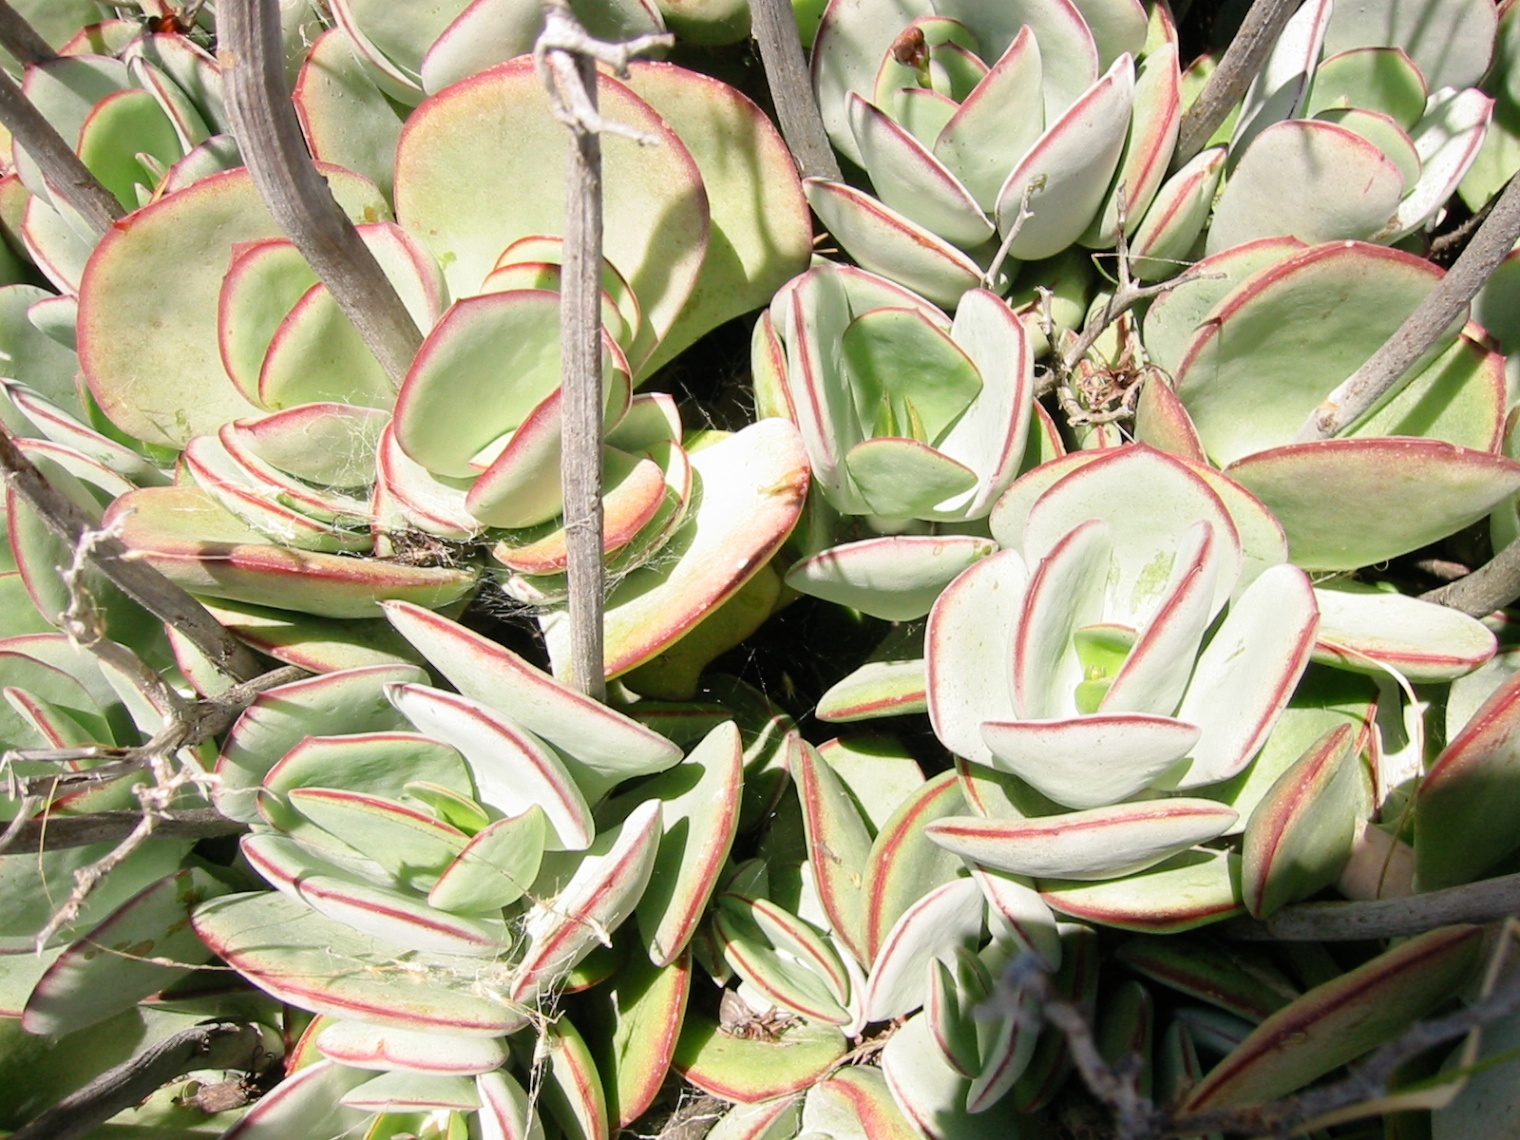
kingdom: Plantae
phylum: Tracheophyta
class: Magnoliopsida
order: Saxifragales
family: Crassulaceae
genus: Cotyledon
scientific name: Cotyledon orbiculata
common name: Pig's ear
